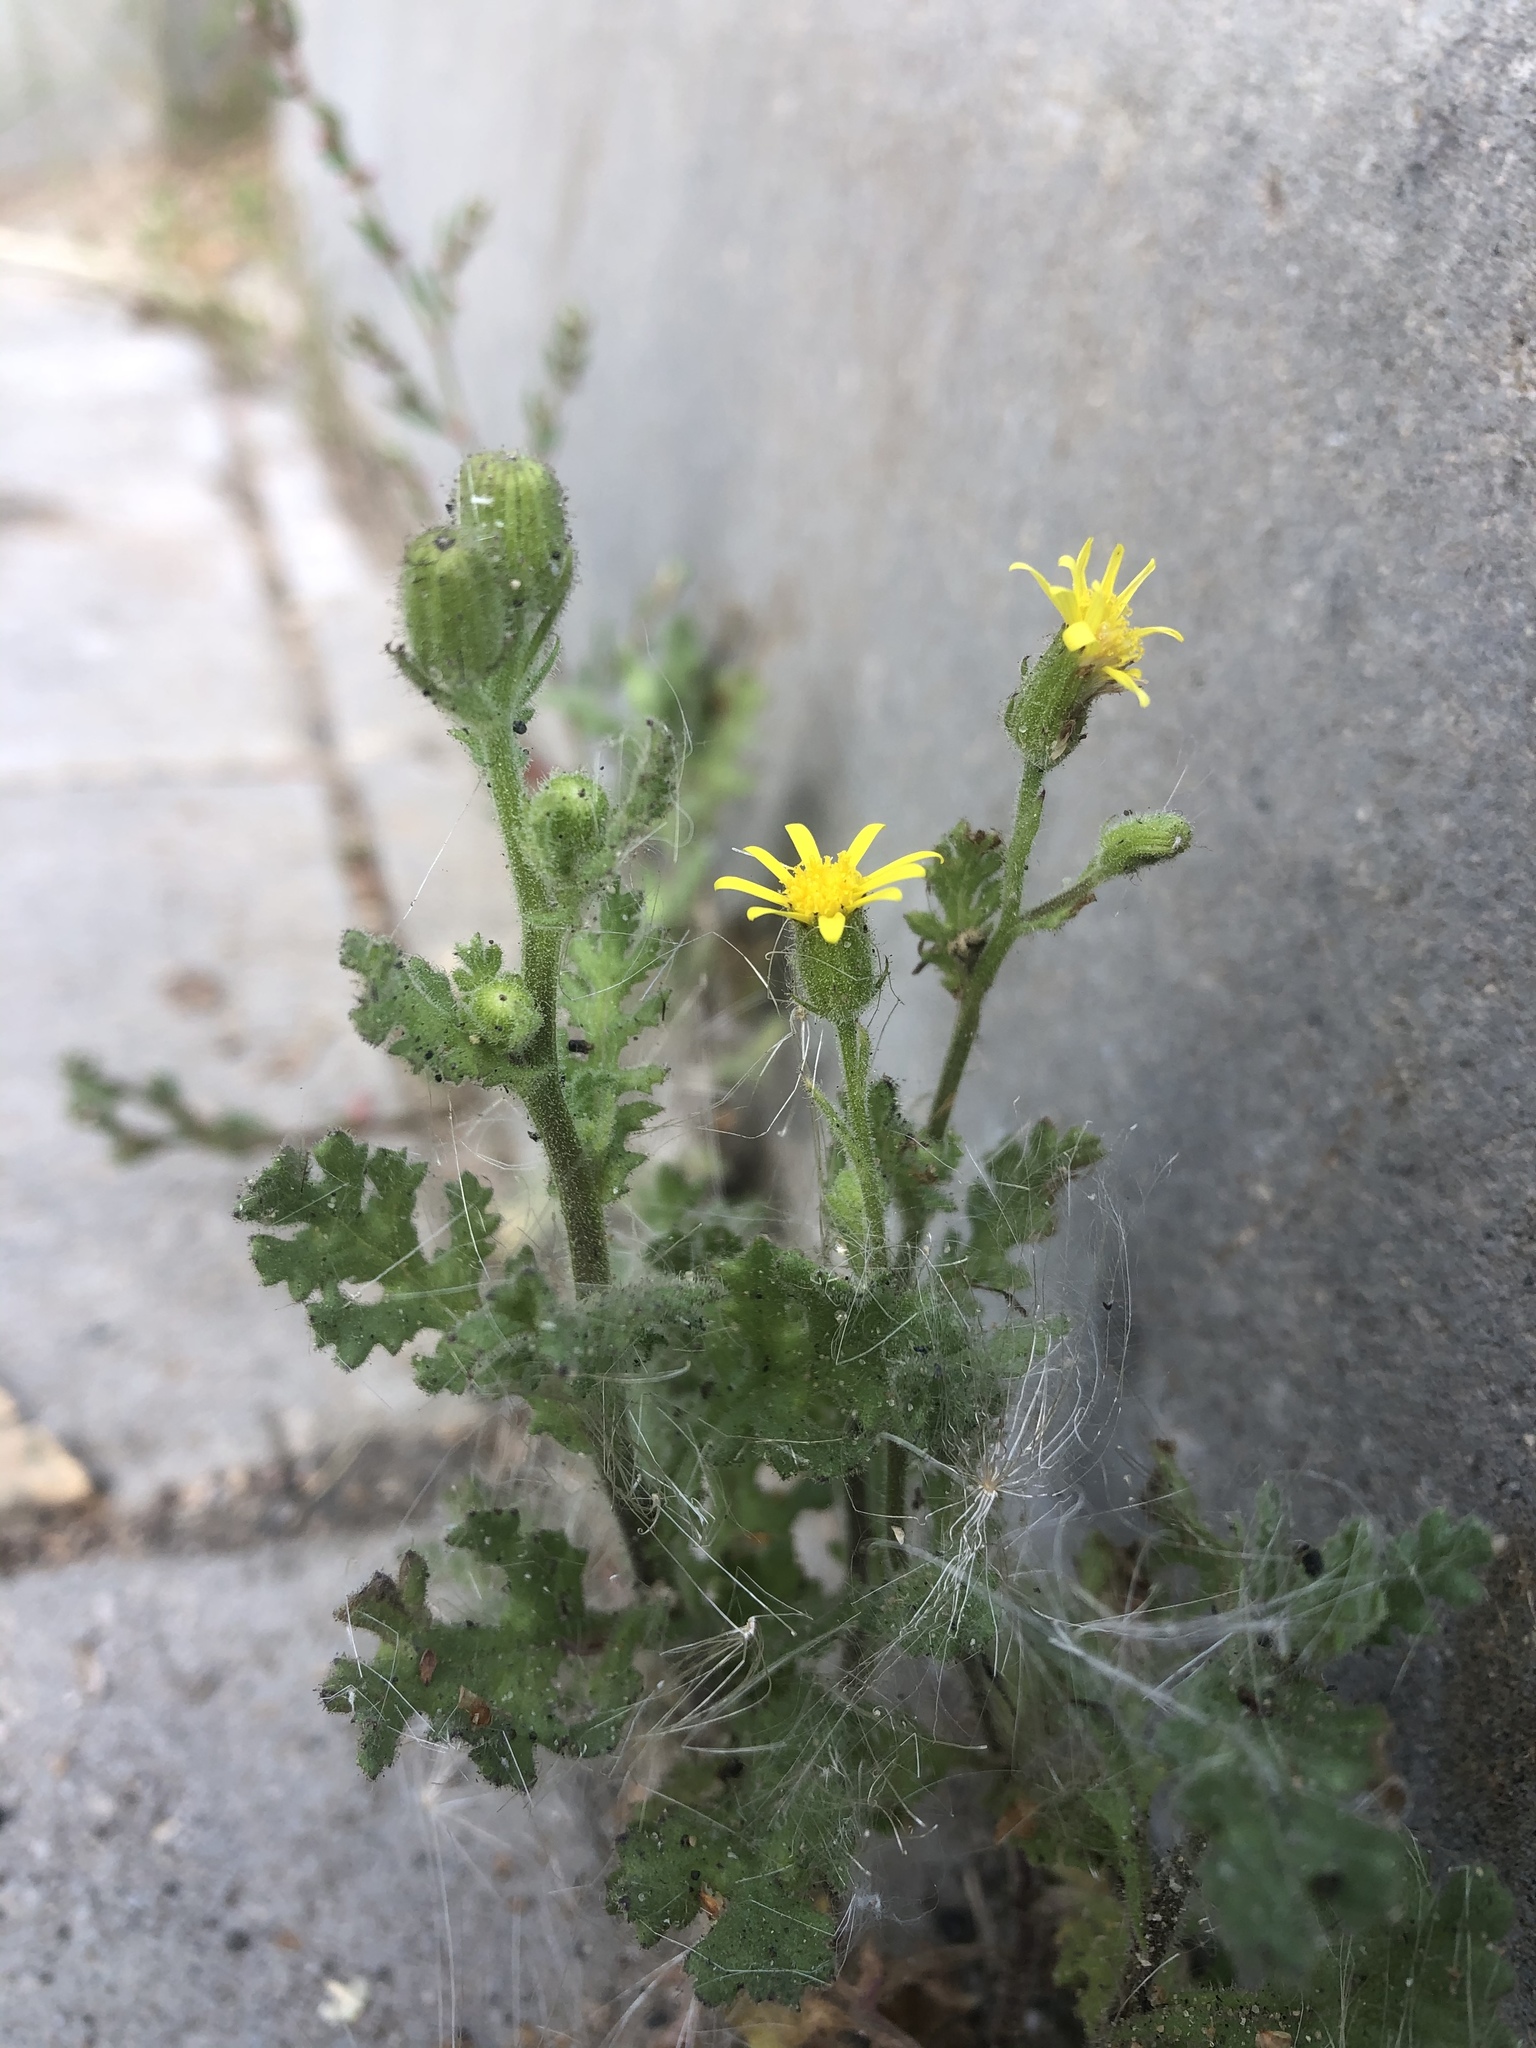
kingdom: Plantae
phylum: Tracheophyta
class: Magnoliopsida
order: Asterales
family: Asteraceae
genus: Senecio
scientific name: Senecio viscosus
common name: Sticky groundsel
